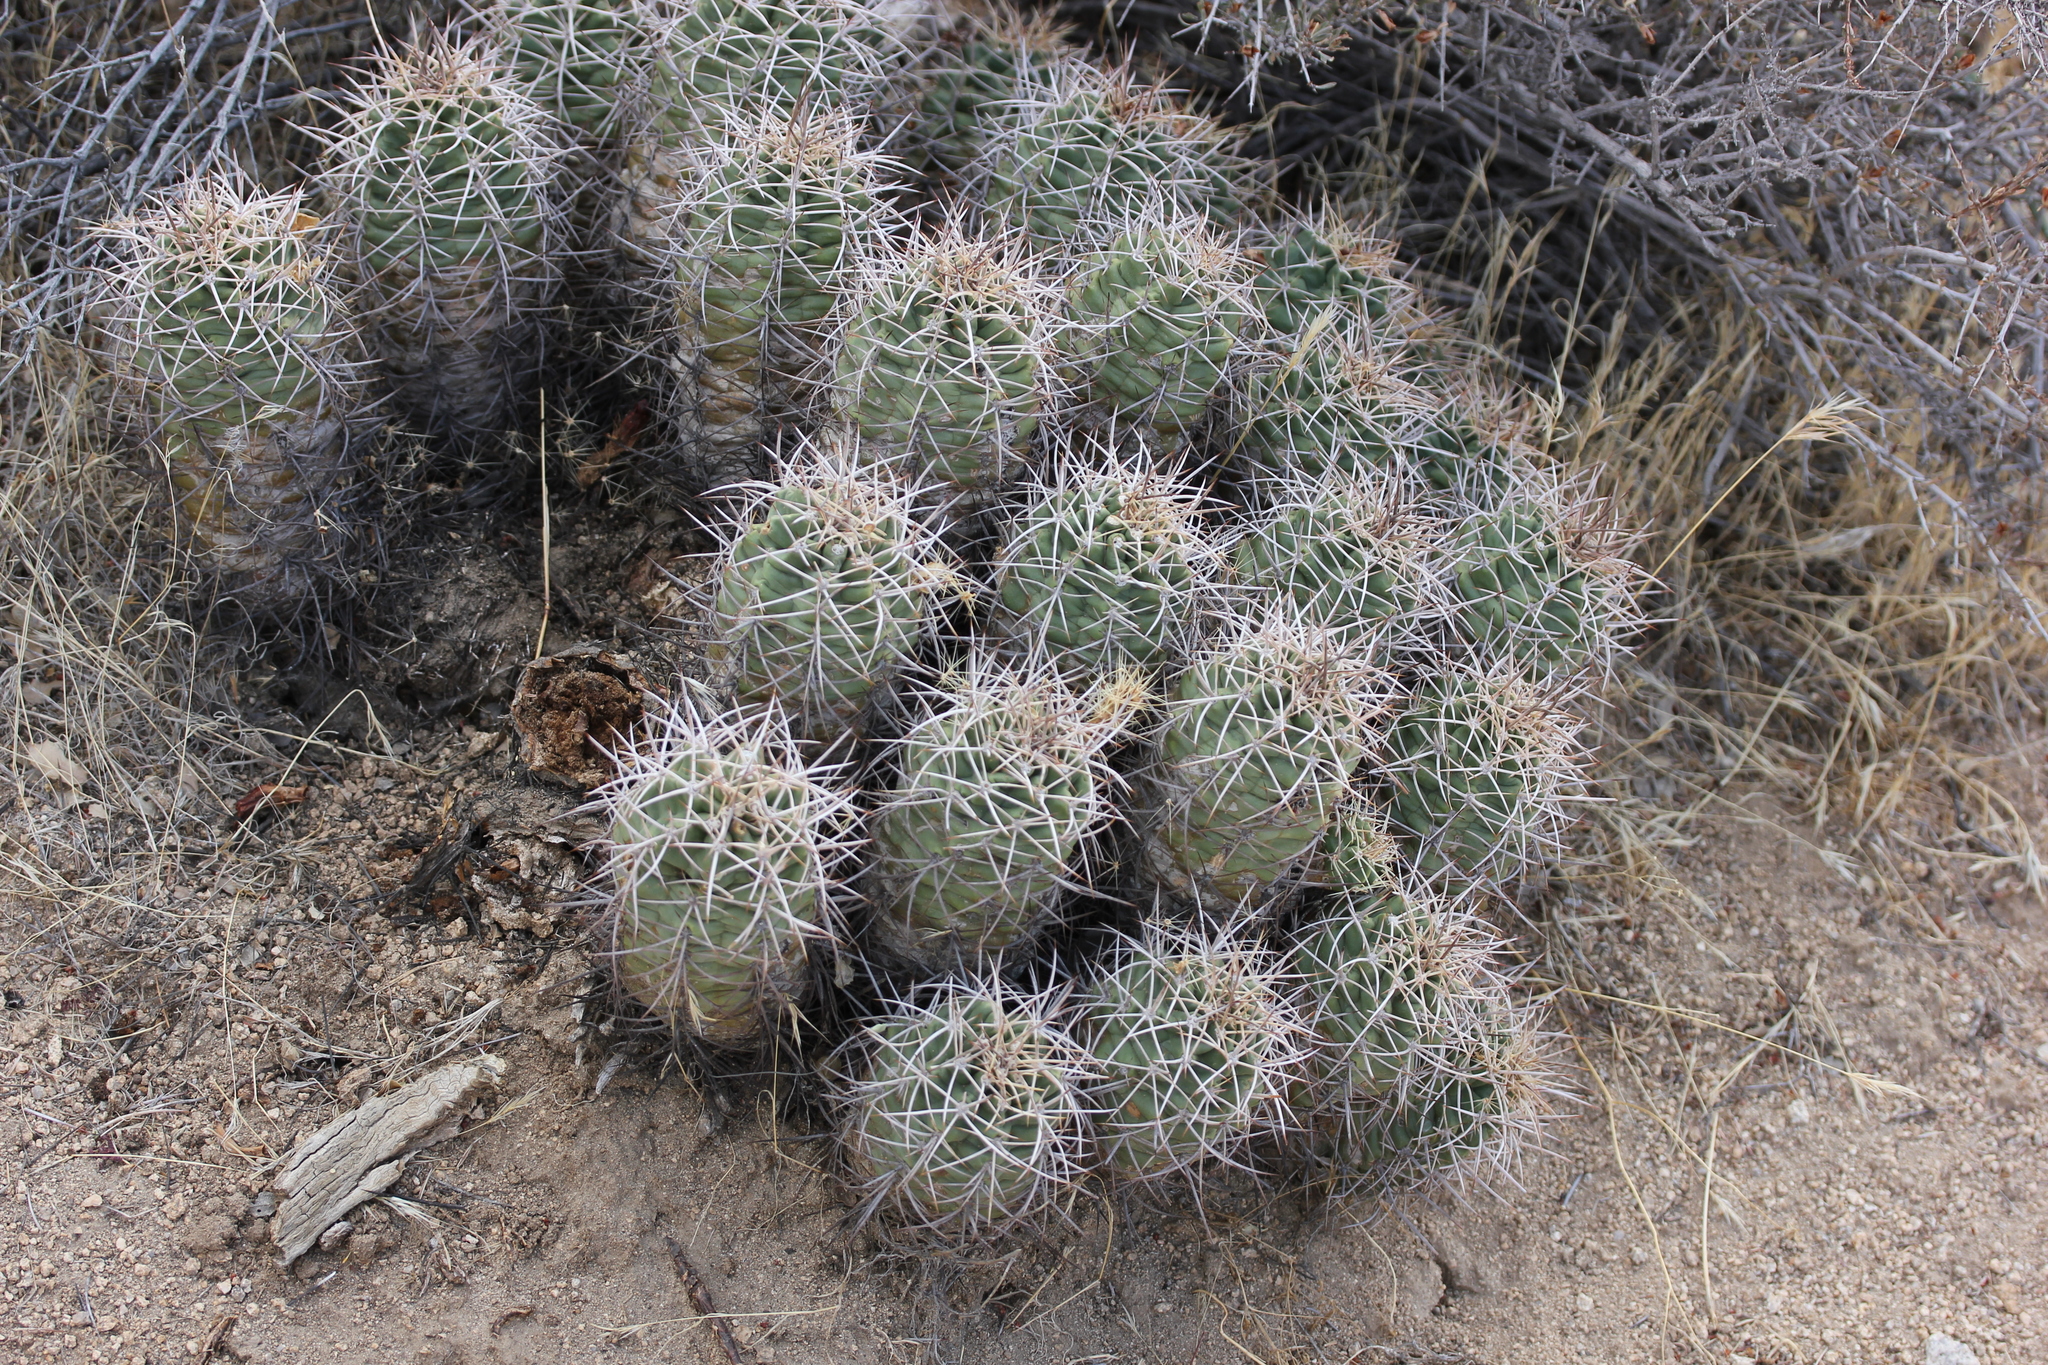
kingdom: Plantae
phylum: Tracheophyta
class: Magnoliopsida
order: Caryophyllales
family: Cactaceae
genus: Echinocereus
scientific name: Echinocereus triglochidiatus
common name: Claretcup hedgehog
